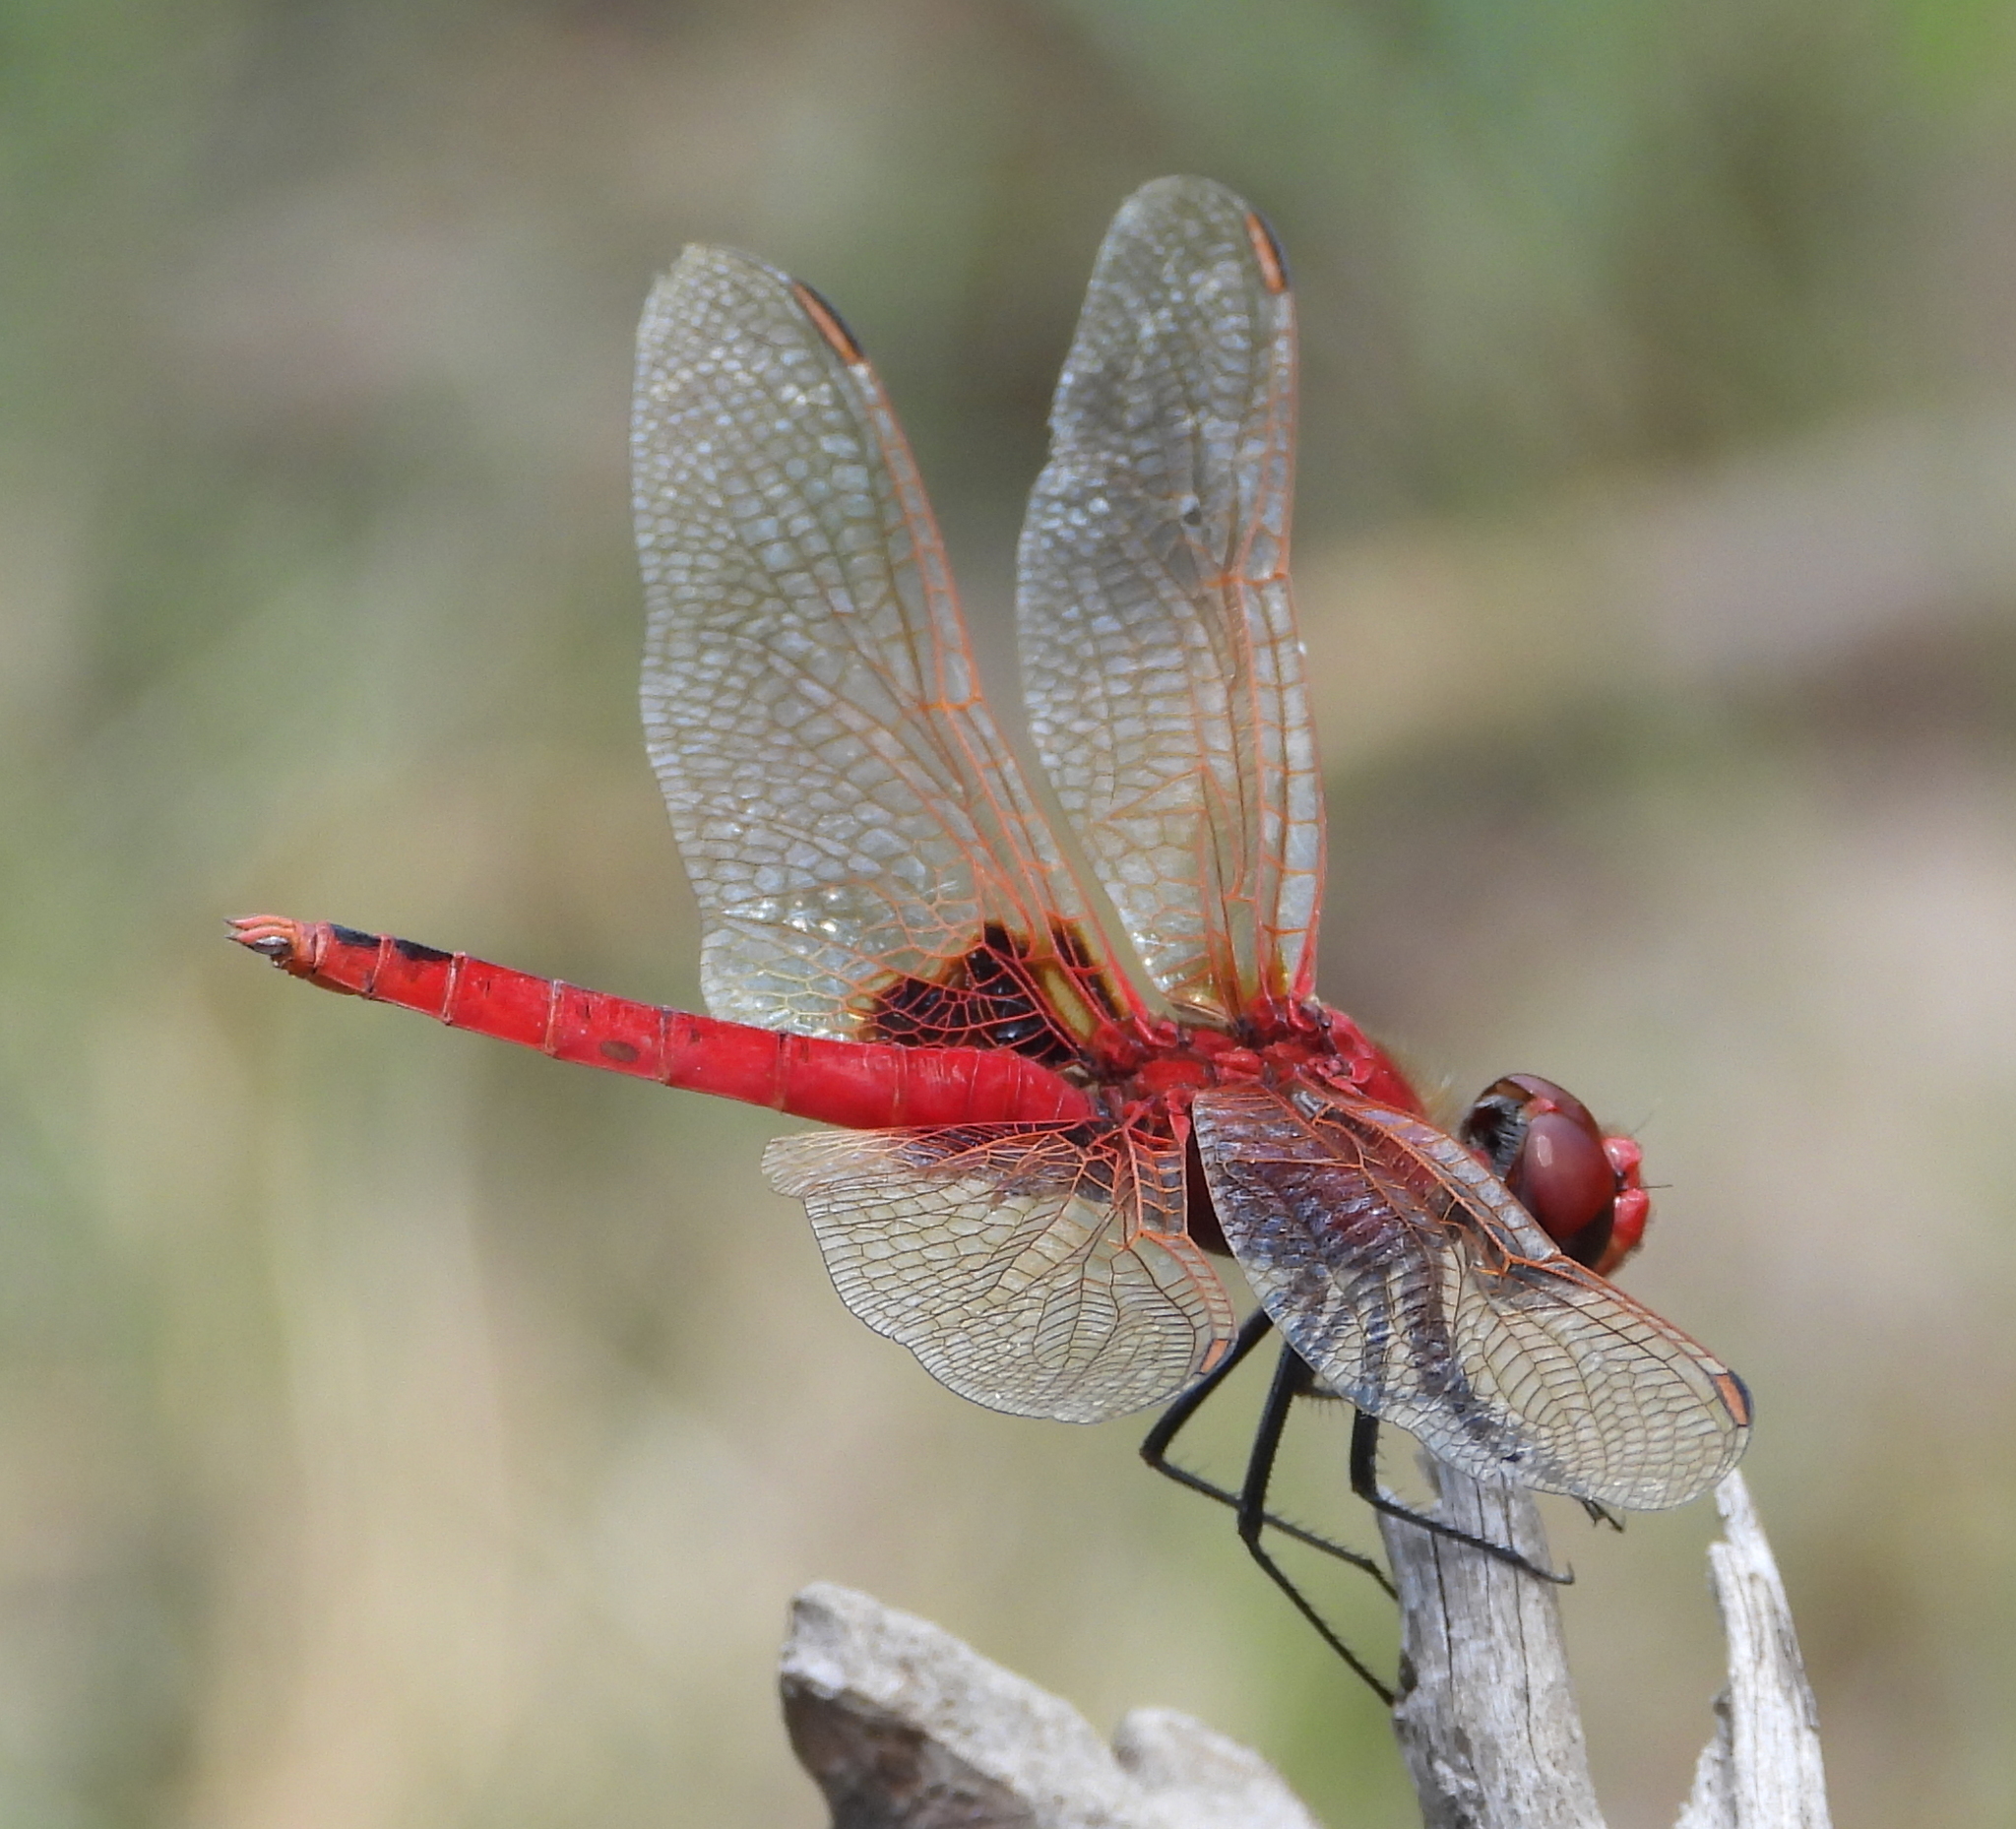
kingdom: Animalia
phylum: Arthropoda
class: Insecta
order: Odonata
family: Libellulidae
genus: Urothemis
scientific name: Urothemis assignata
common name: Red basker
